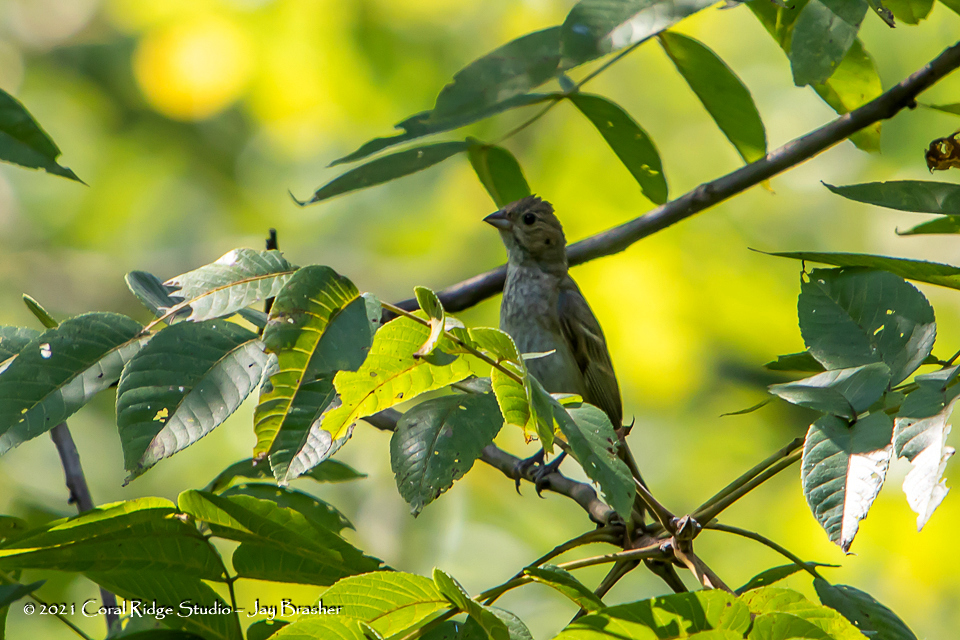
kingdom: Animalia
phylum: Chordata
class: Aves
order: Passeriformes
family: Cardinalidae
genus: Passerina
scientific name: Passerina cyanea
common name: Indigo bunting
